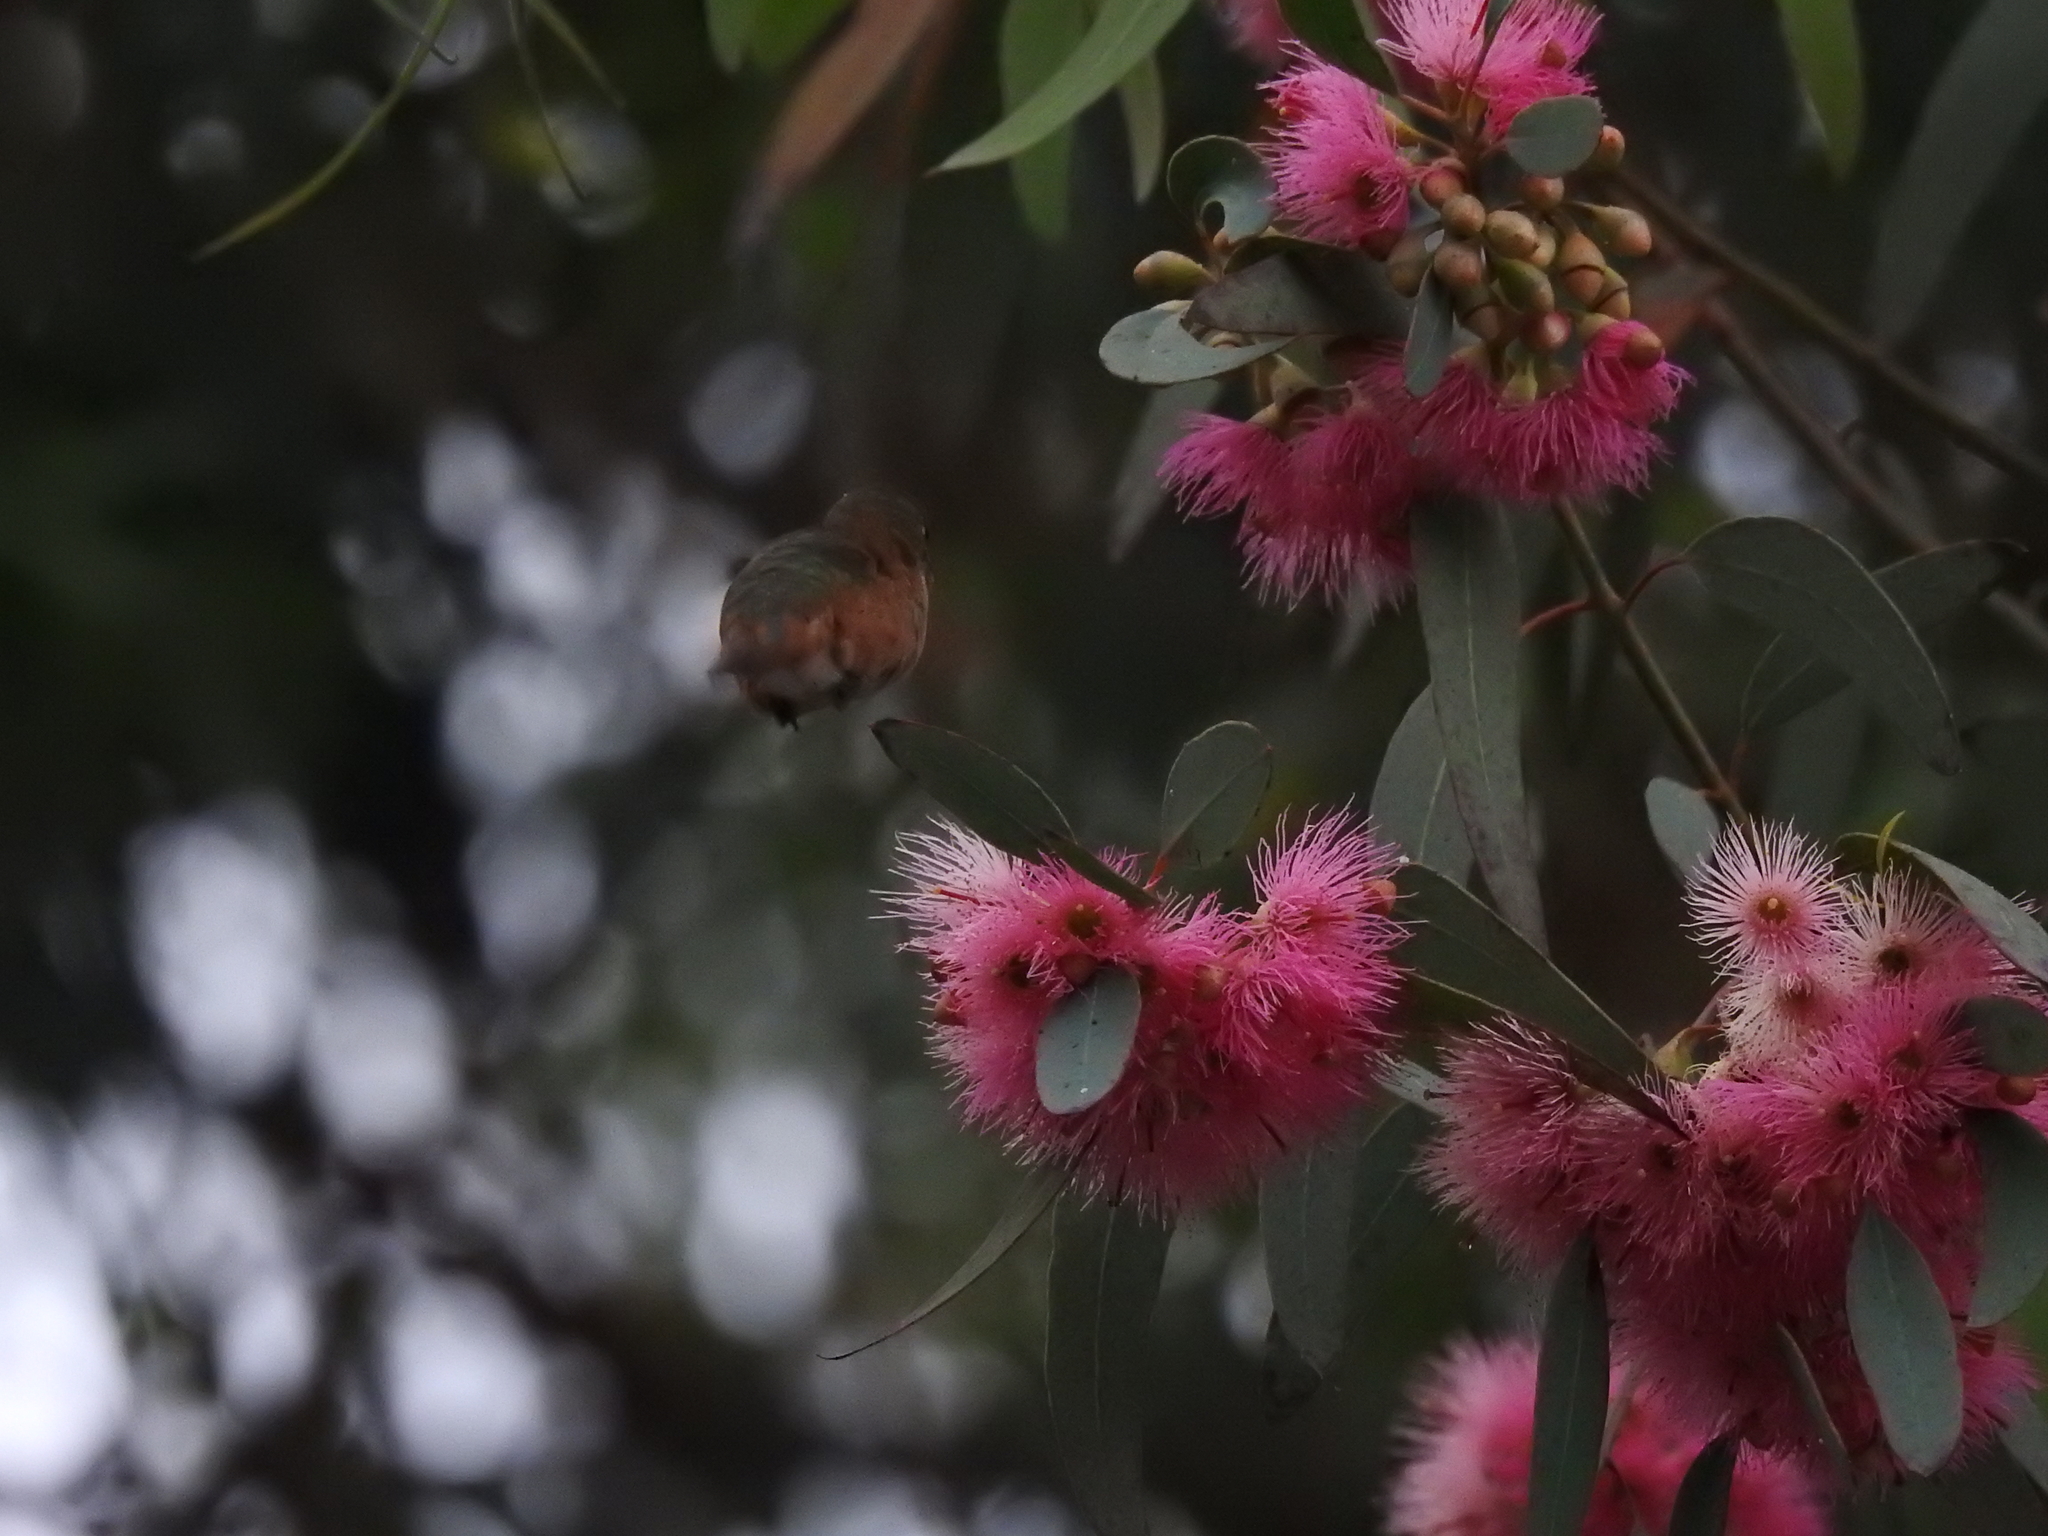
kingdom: Animalia
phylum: Chordata
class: Aves
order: Apodiformes
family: Trochilidae
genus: Selasphorus
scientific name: Selasphorus
